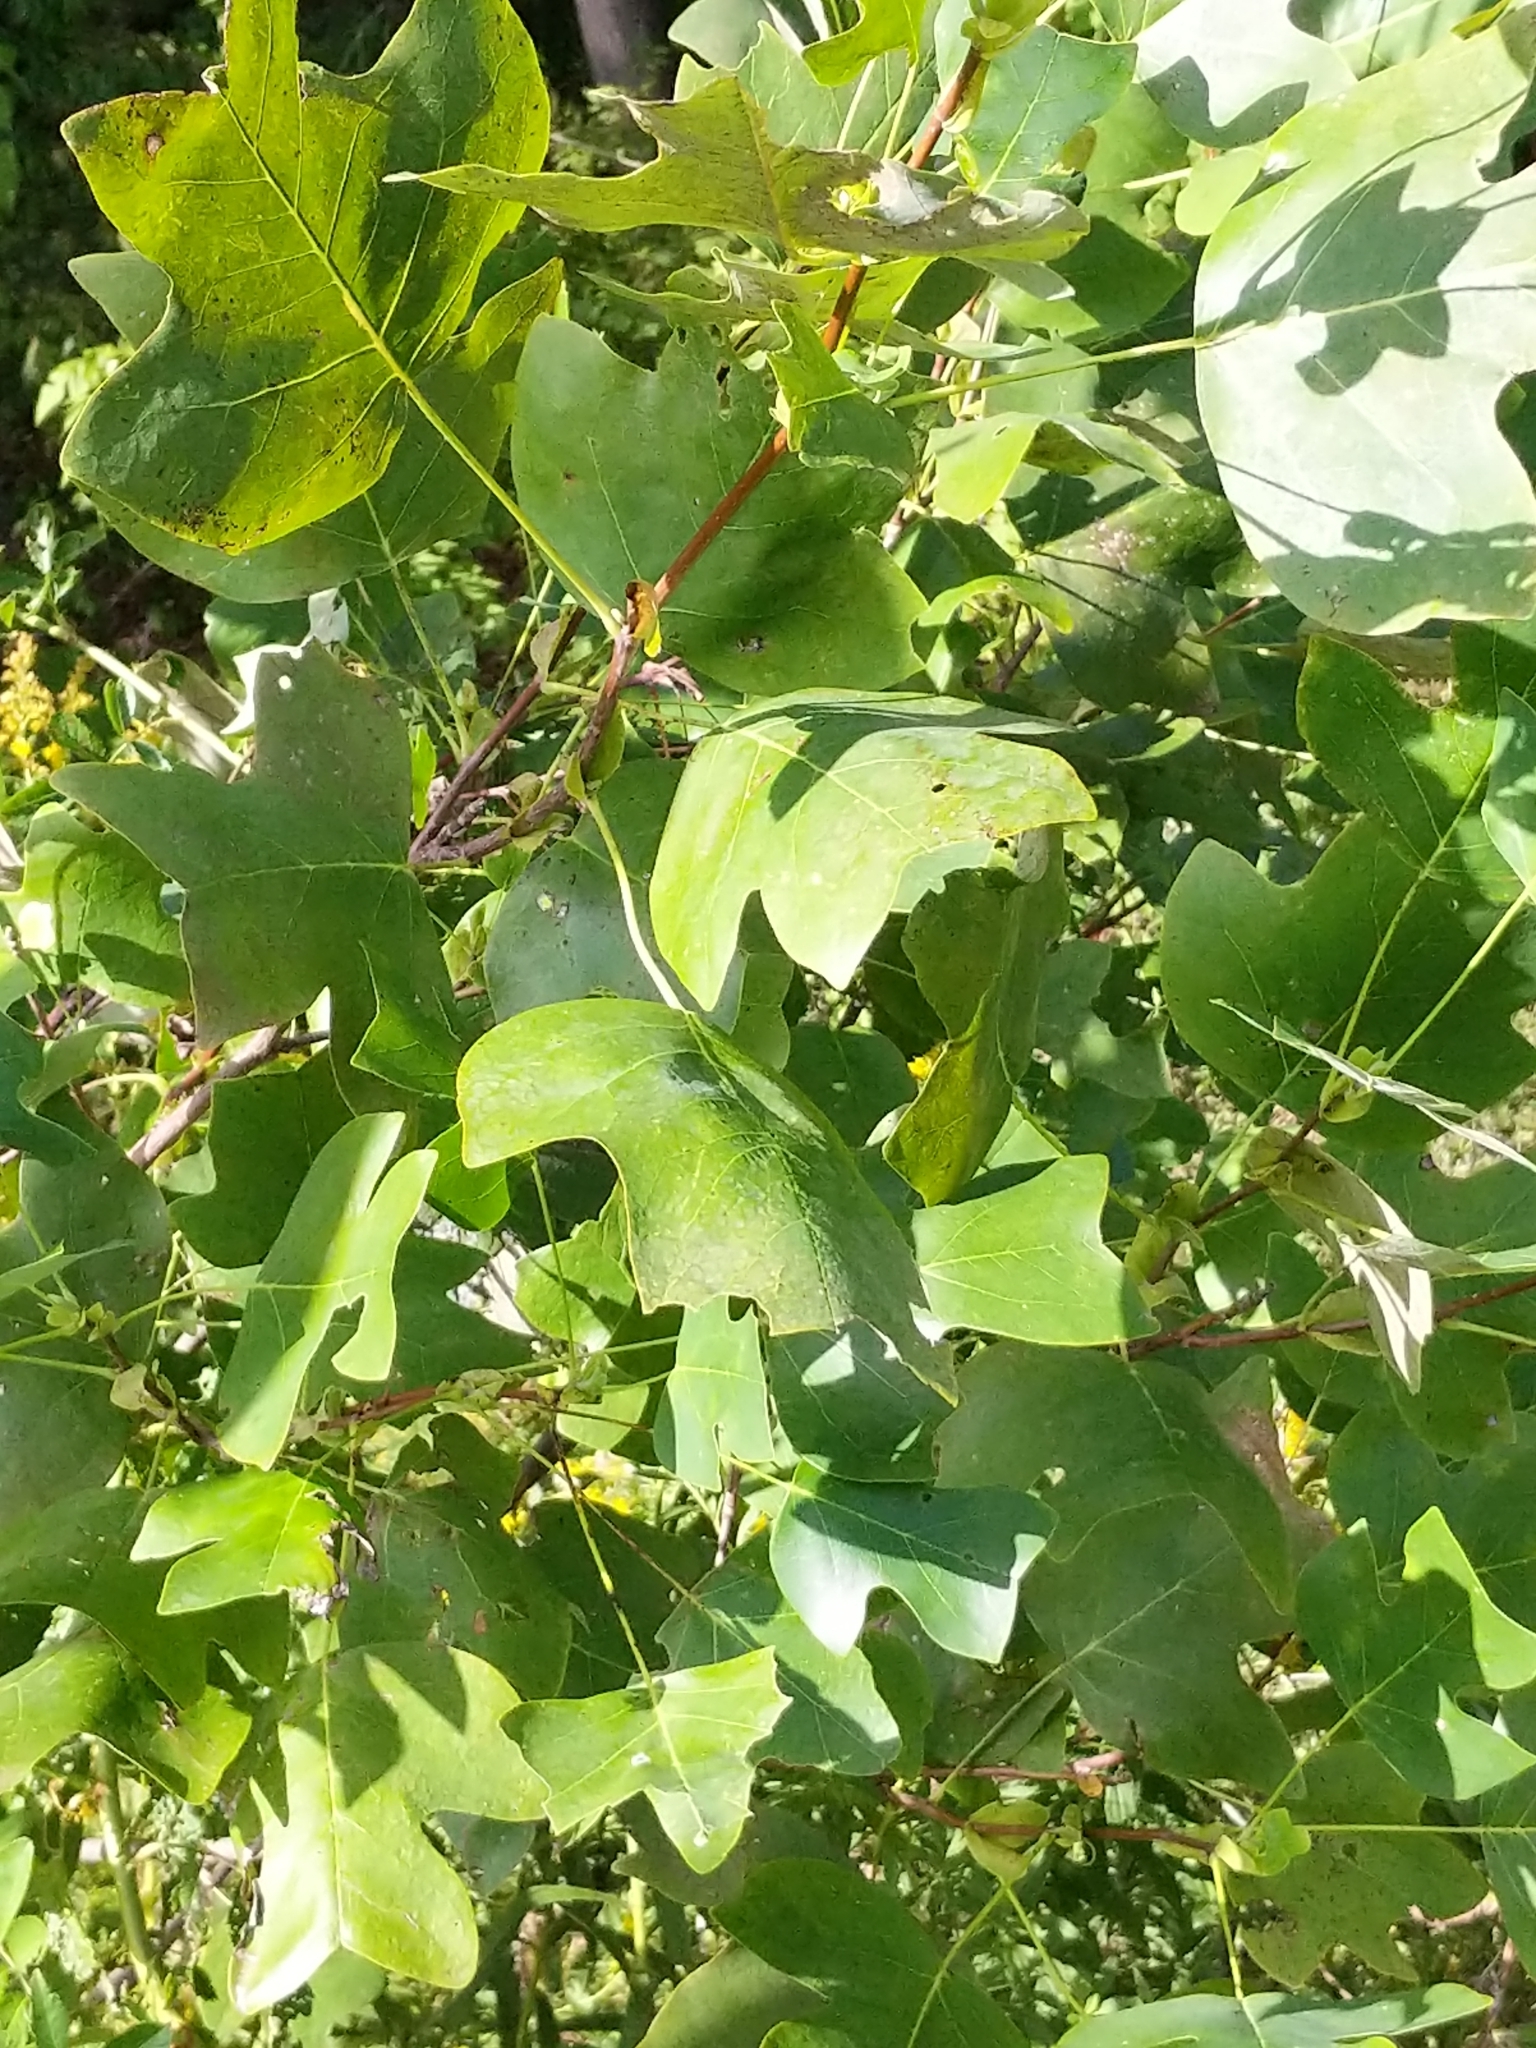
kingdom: Plantae
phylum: Tracheophyta
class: Magnoliopsida
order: Magnoliales
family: Magnoliaceae
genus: Liriodendron
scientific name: Liriodendron tulipifera
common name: Tulip tree
